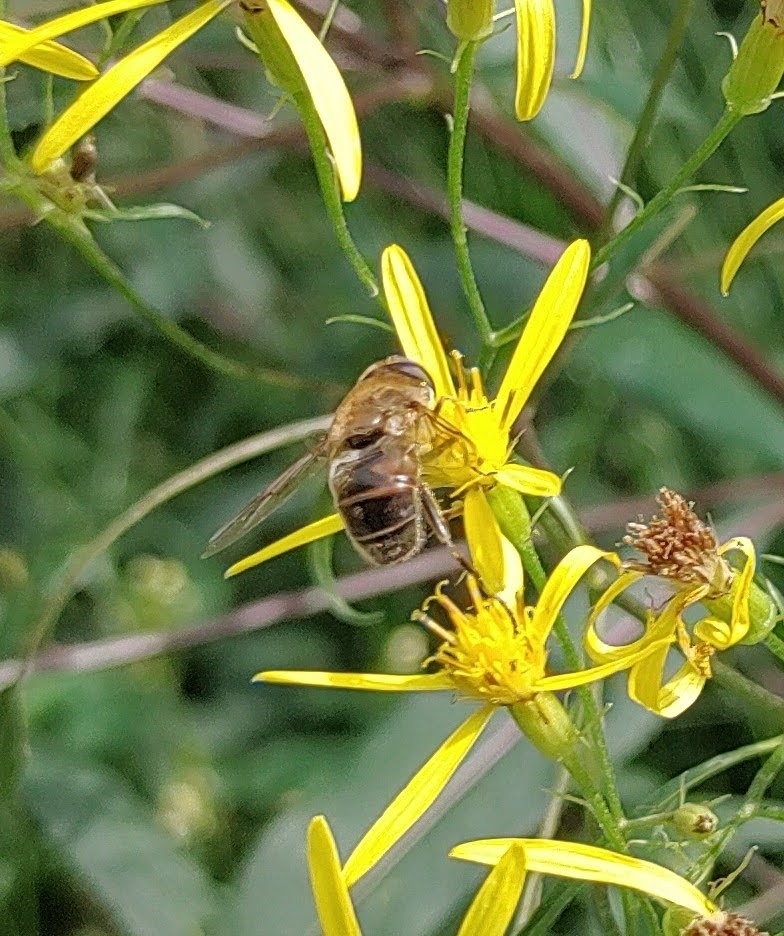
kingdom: Animalia
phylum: Arthropoda
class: Insecta
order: Diptera
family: Syrphidae
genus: Eristalis
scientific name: Eristalis tenax
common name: Drone fly
